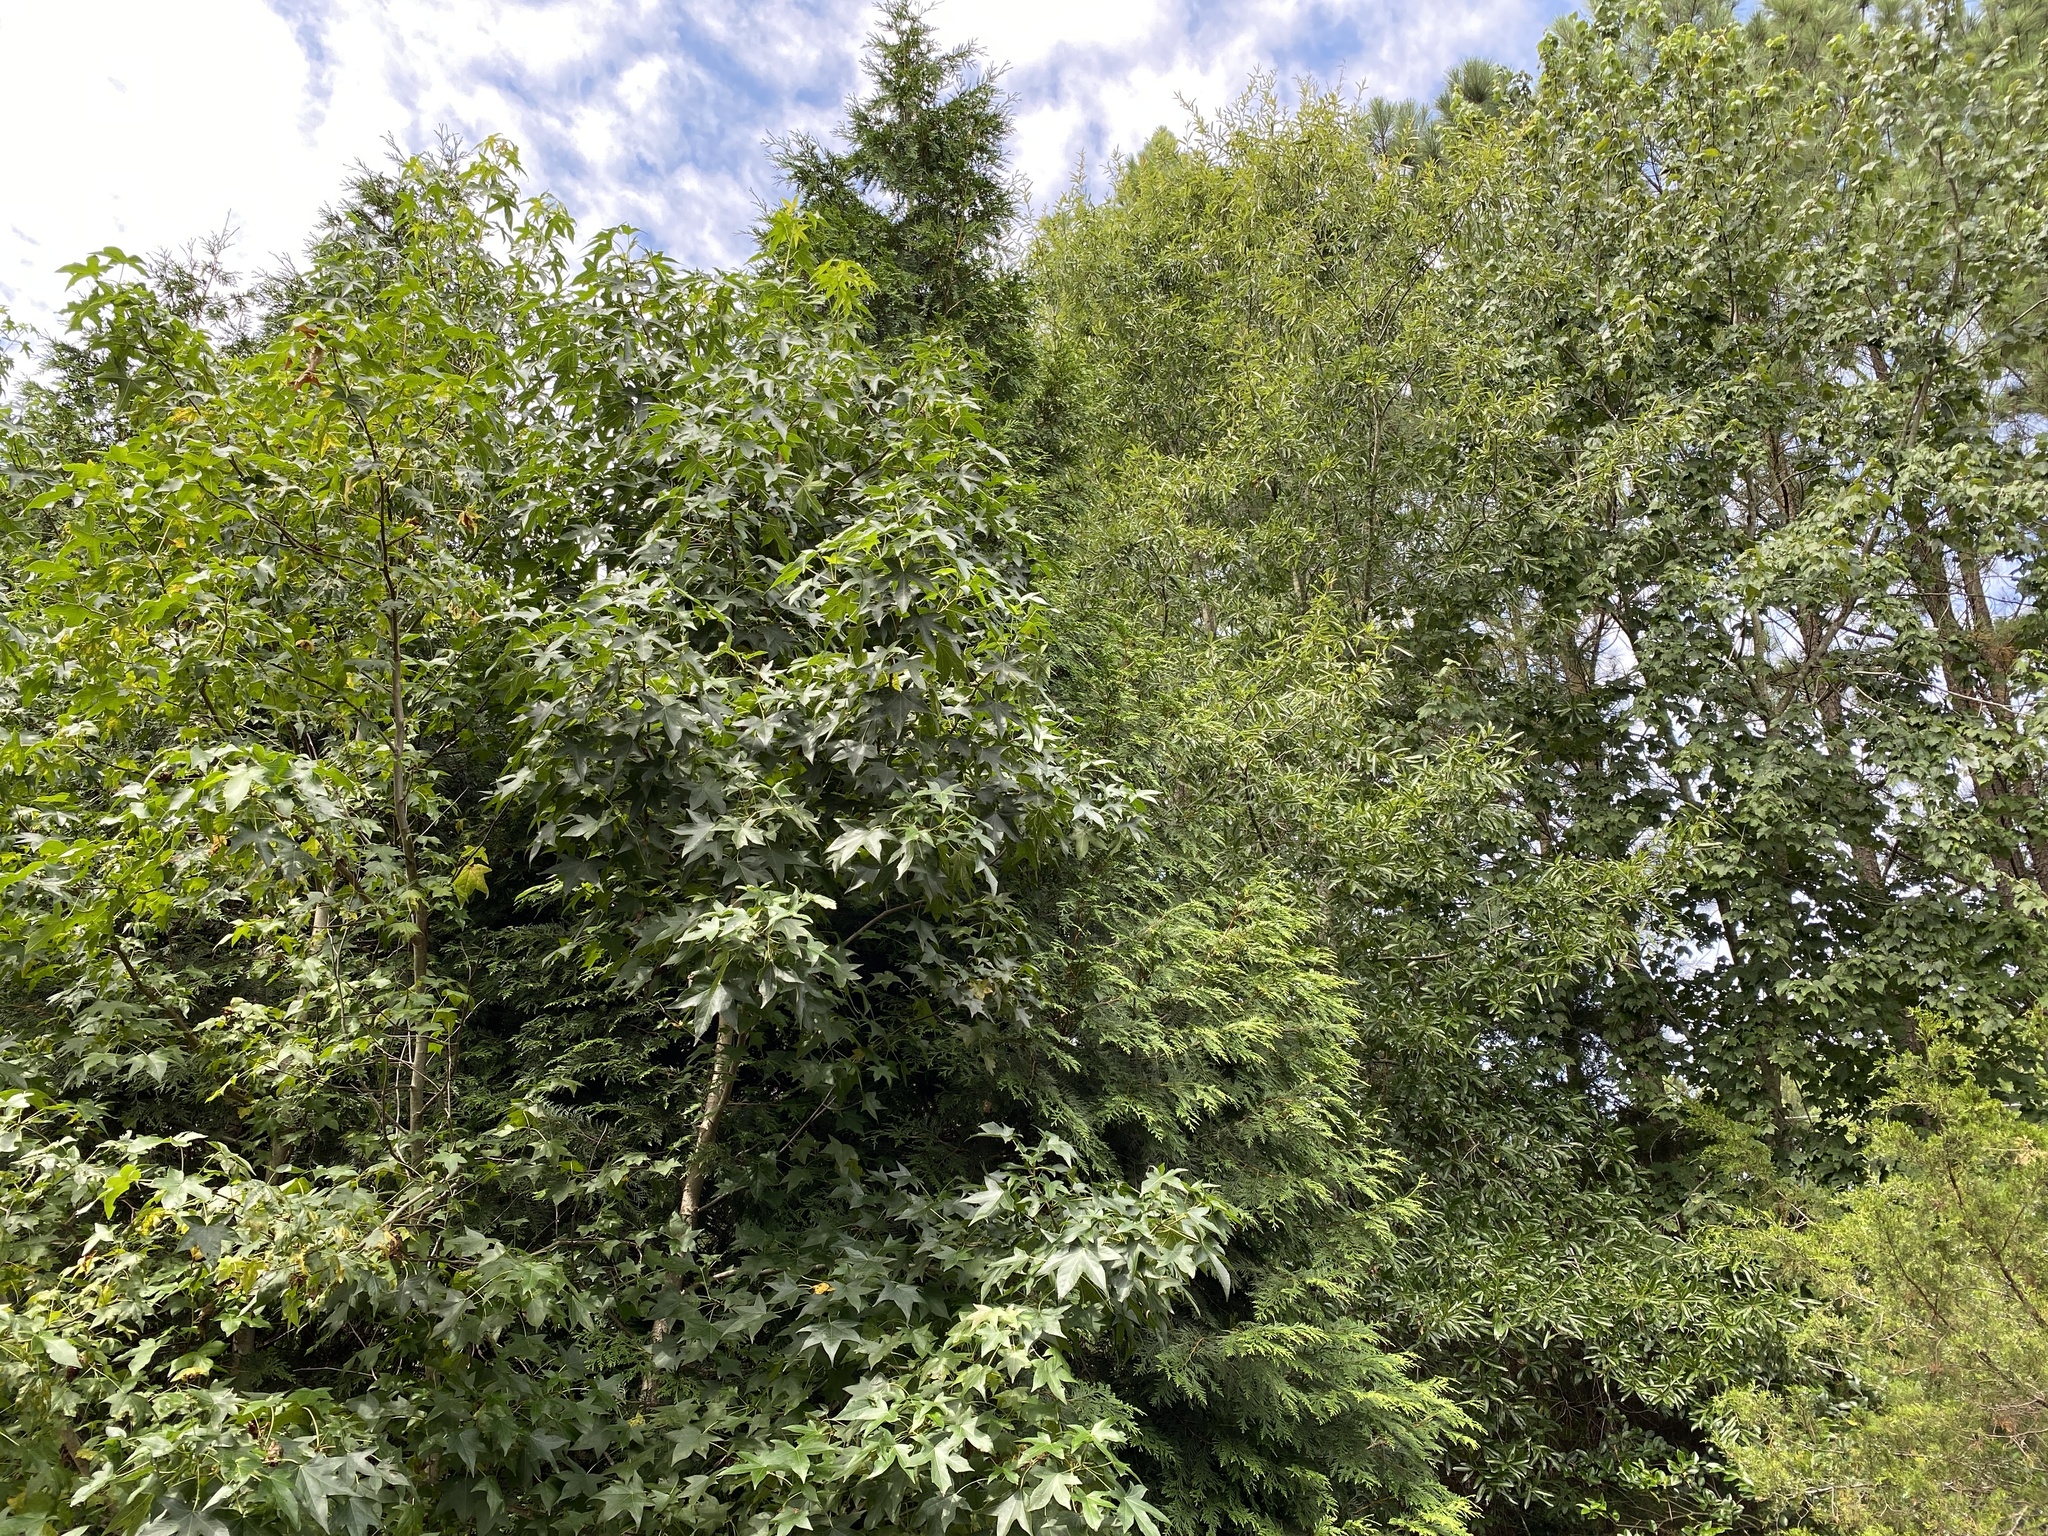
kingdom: Animalia
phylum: Chordata
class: Aves
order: Passeriformes
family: Corvidae
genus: Cyanocitta
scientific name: Cyanocitta cristata
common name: Blue jay
